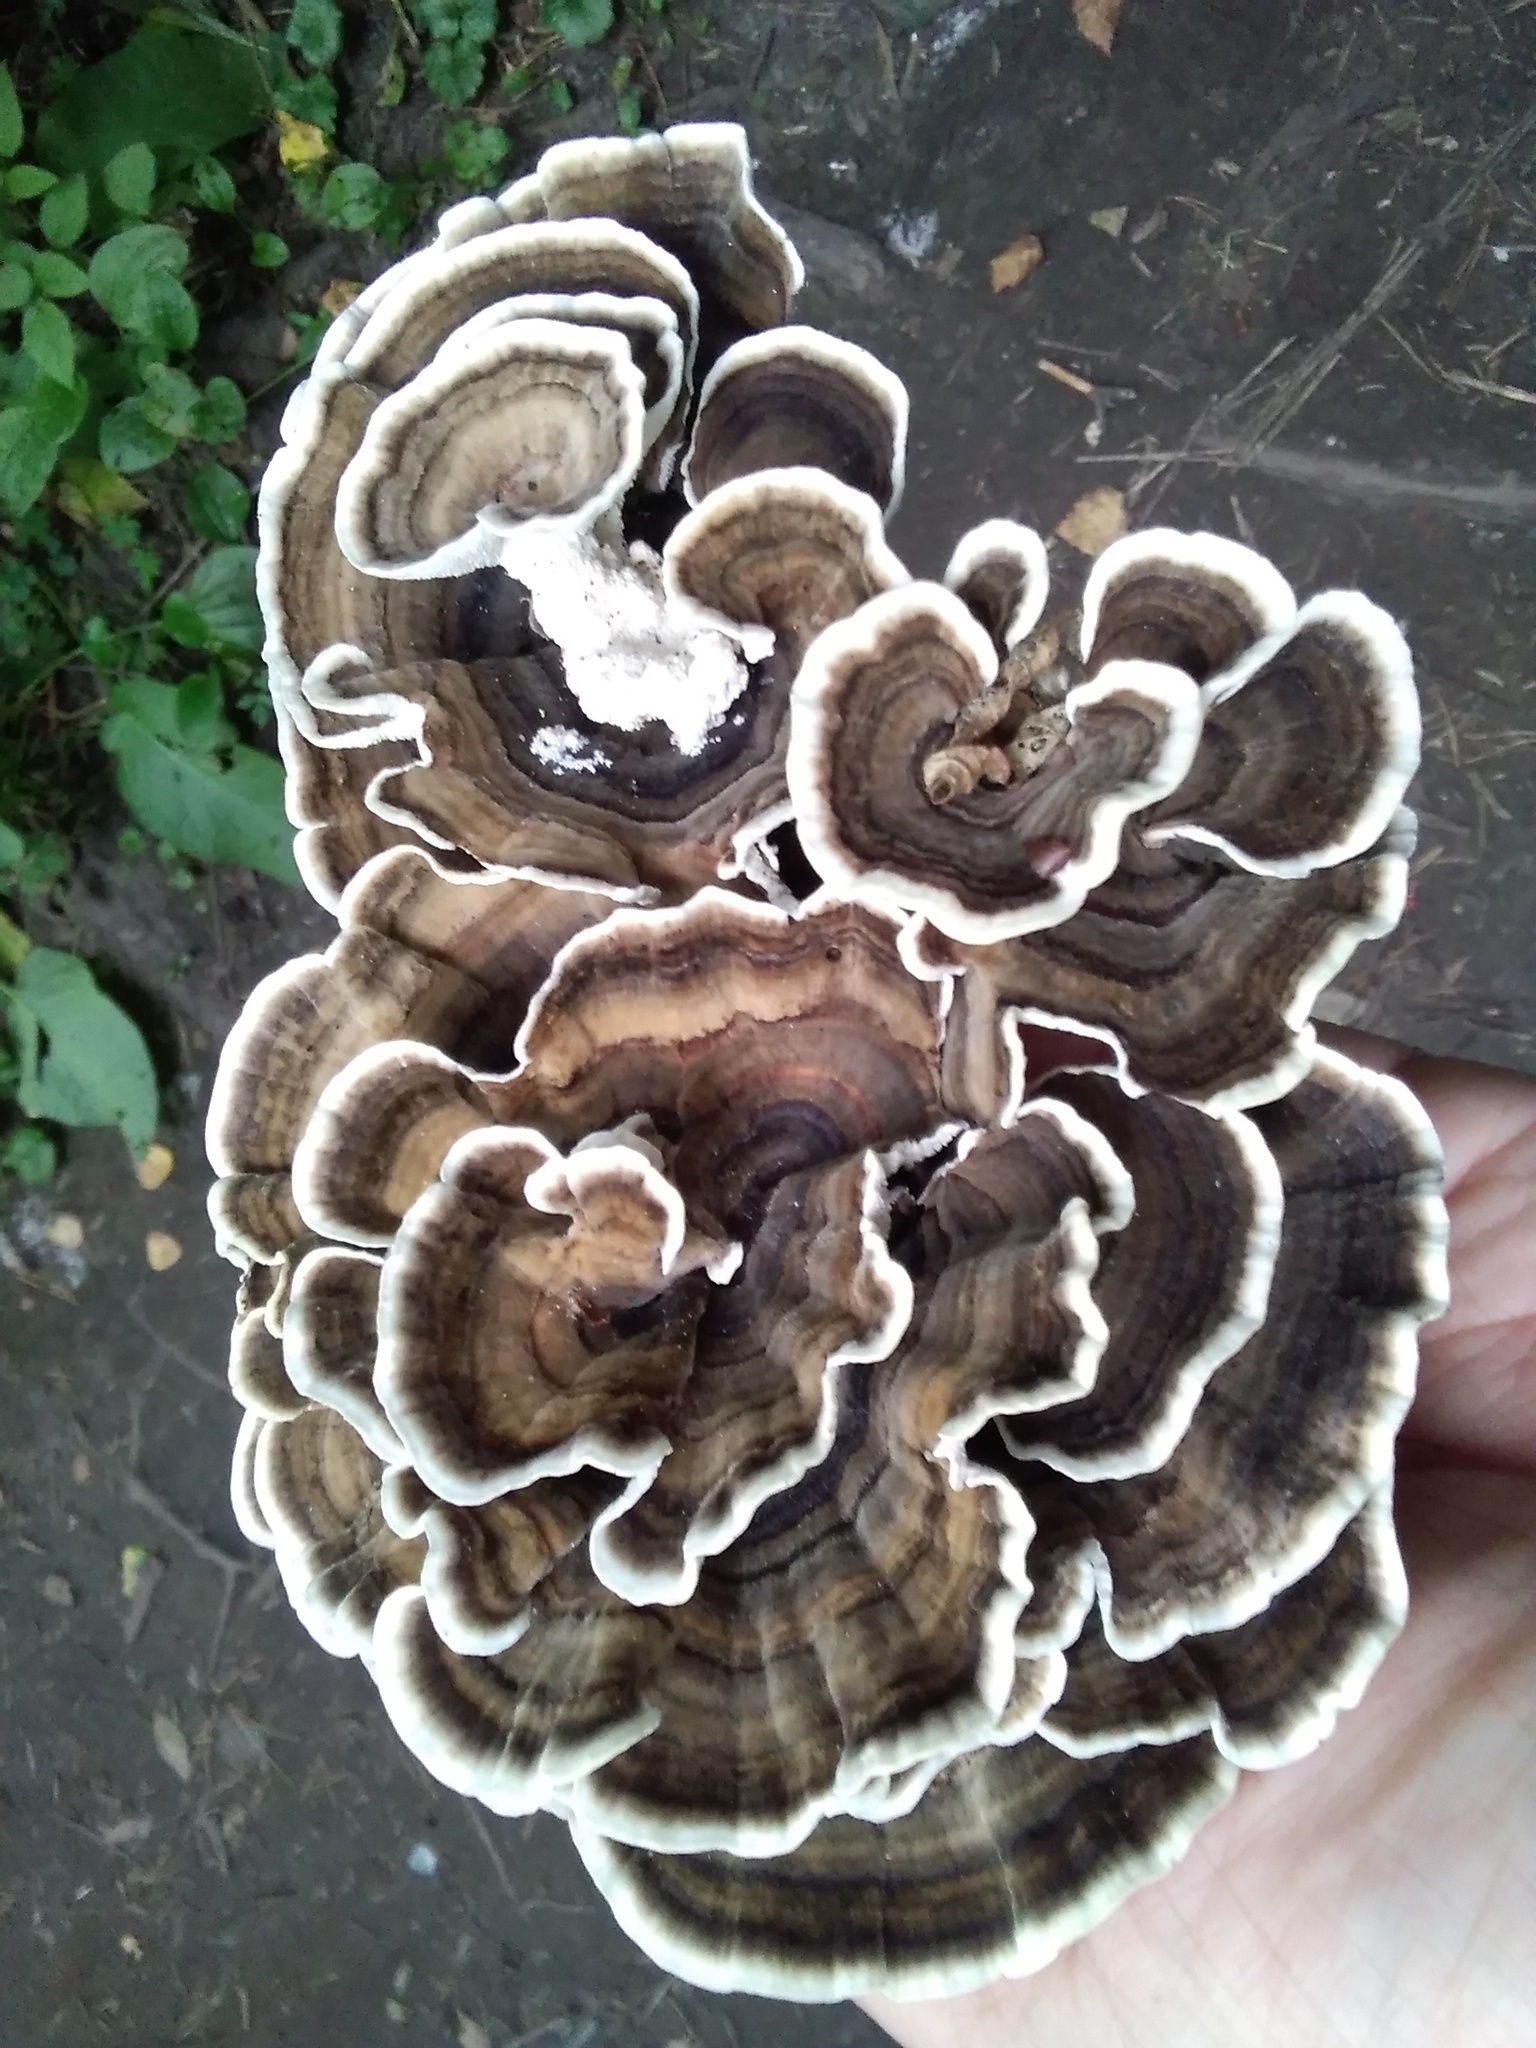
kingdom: Fungi
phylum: Basidiomycota
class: Agaricomycetes
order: Polyporales
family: Polyporaceae
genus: Trametes
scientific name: Trametes versicolor
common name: Turkeytail
